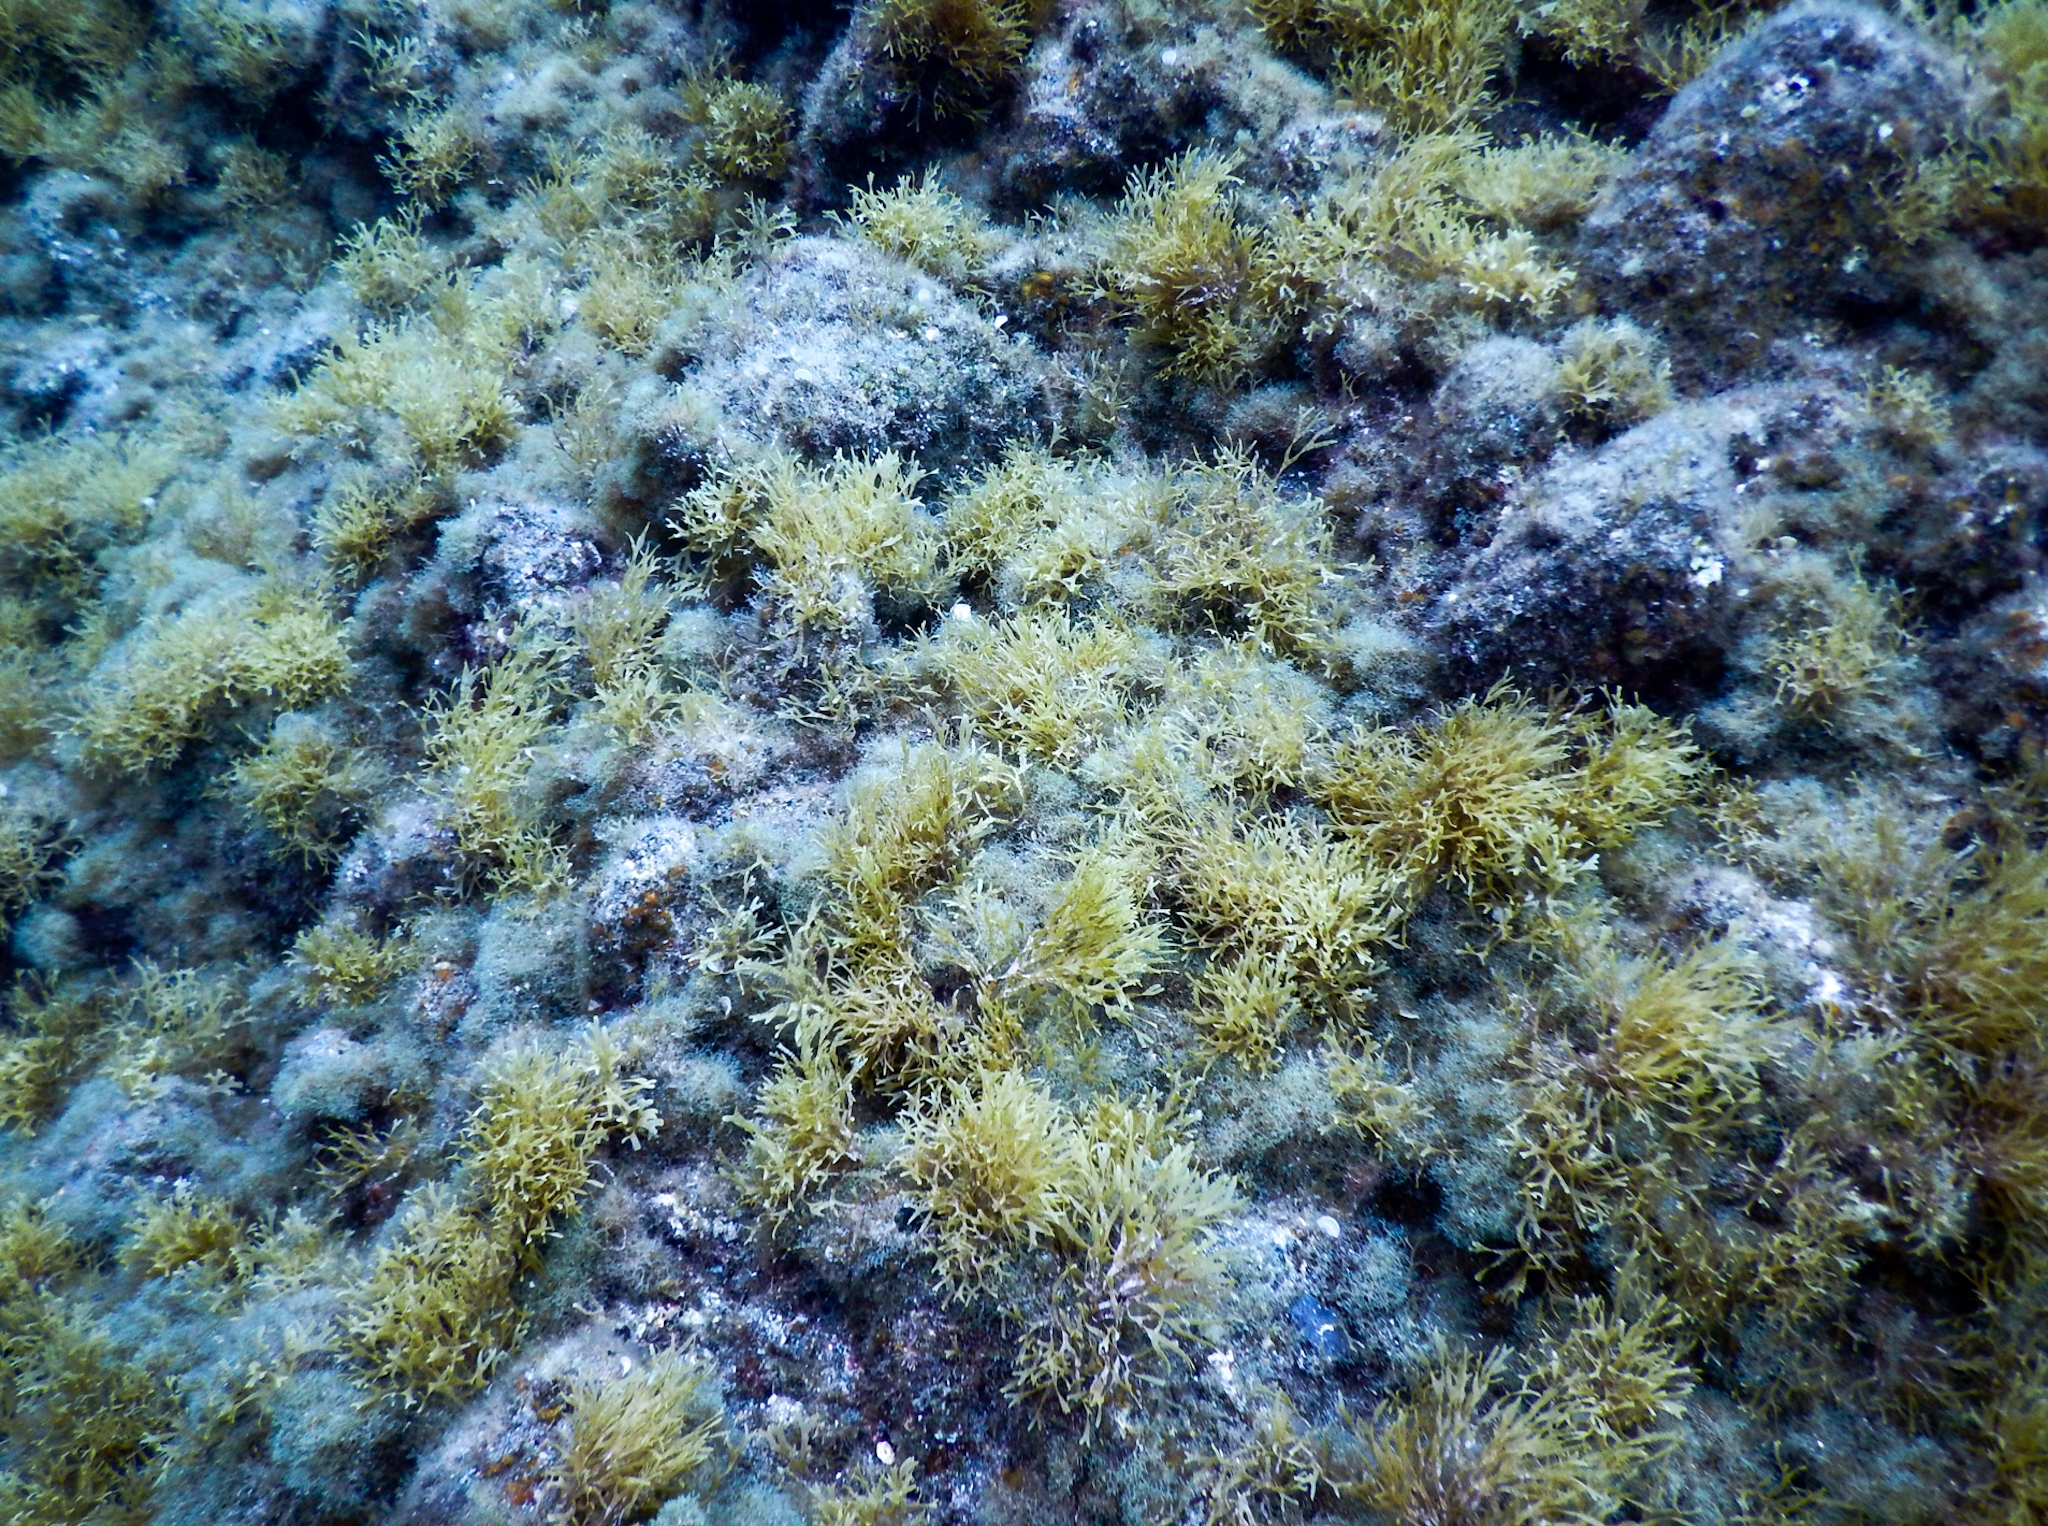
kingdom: Chromista
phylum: Ochrophyta
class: Phaeophyceae
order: Dictyotales
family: Dictyotaceae
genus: Dictyota
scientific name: Dictyota dichotoma
